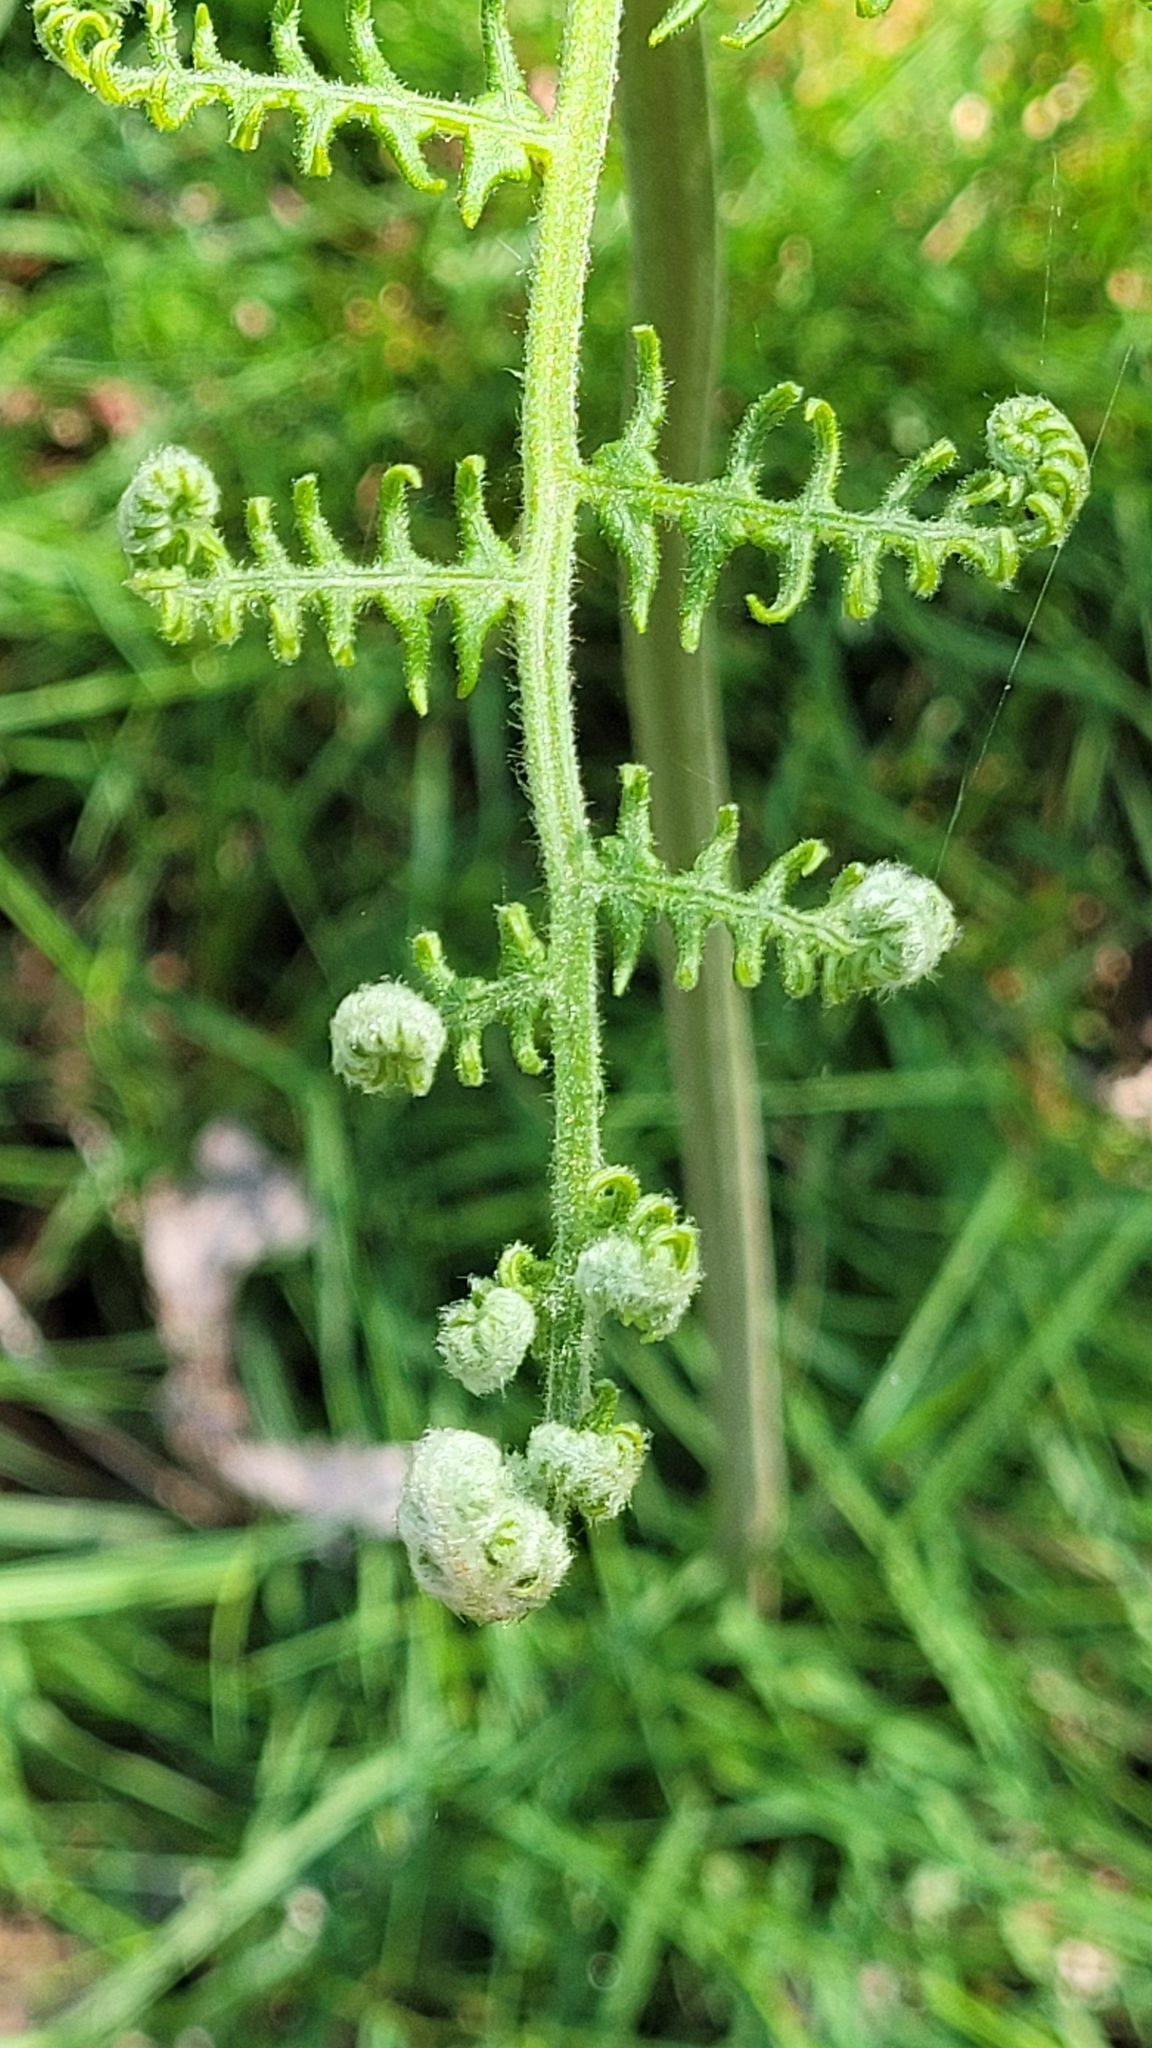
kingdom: Plantae
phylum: Tracheophyta
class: Polypodiopsida
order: Polypodiales
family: Dennstaedtiaceae
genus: Pteridium
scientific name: Pteridium aquilinum
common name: Bracken
